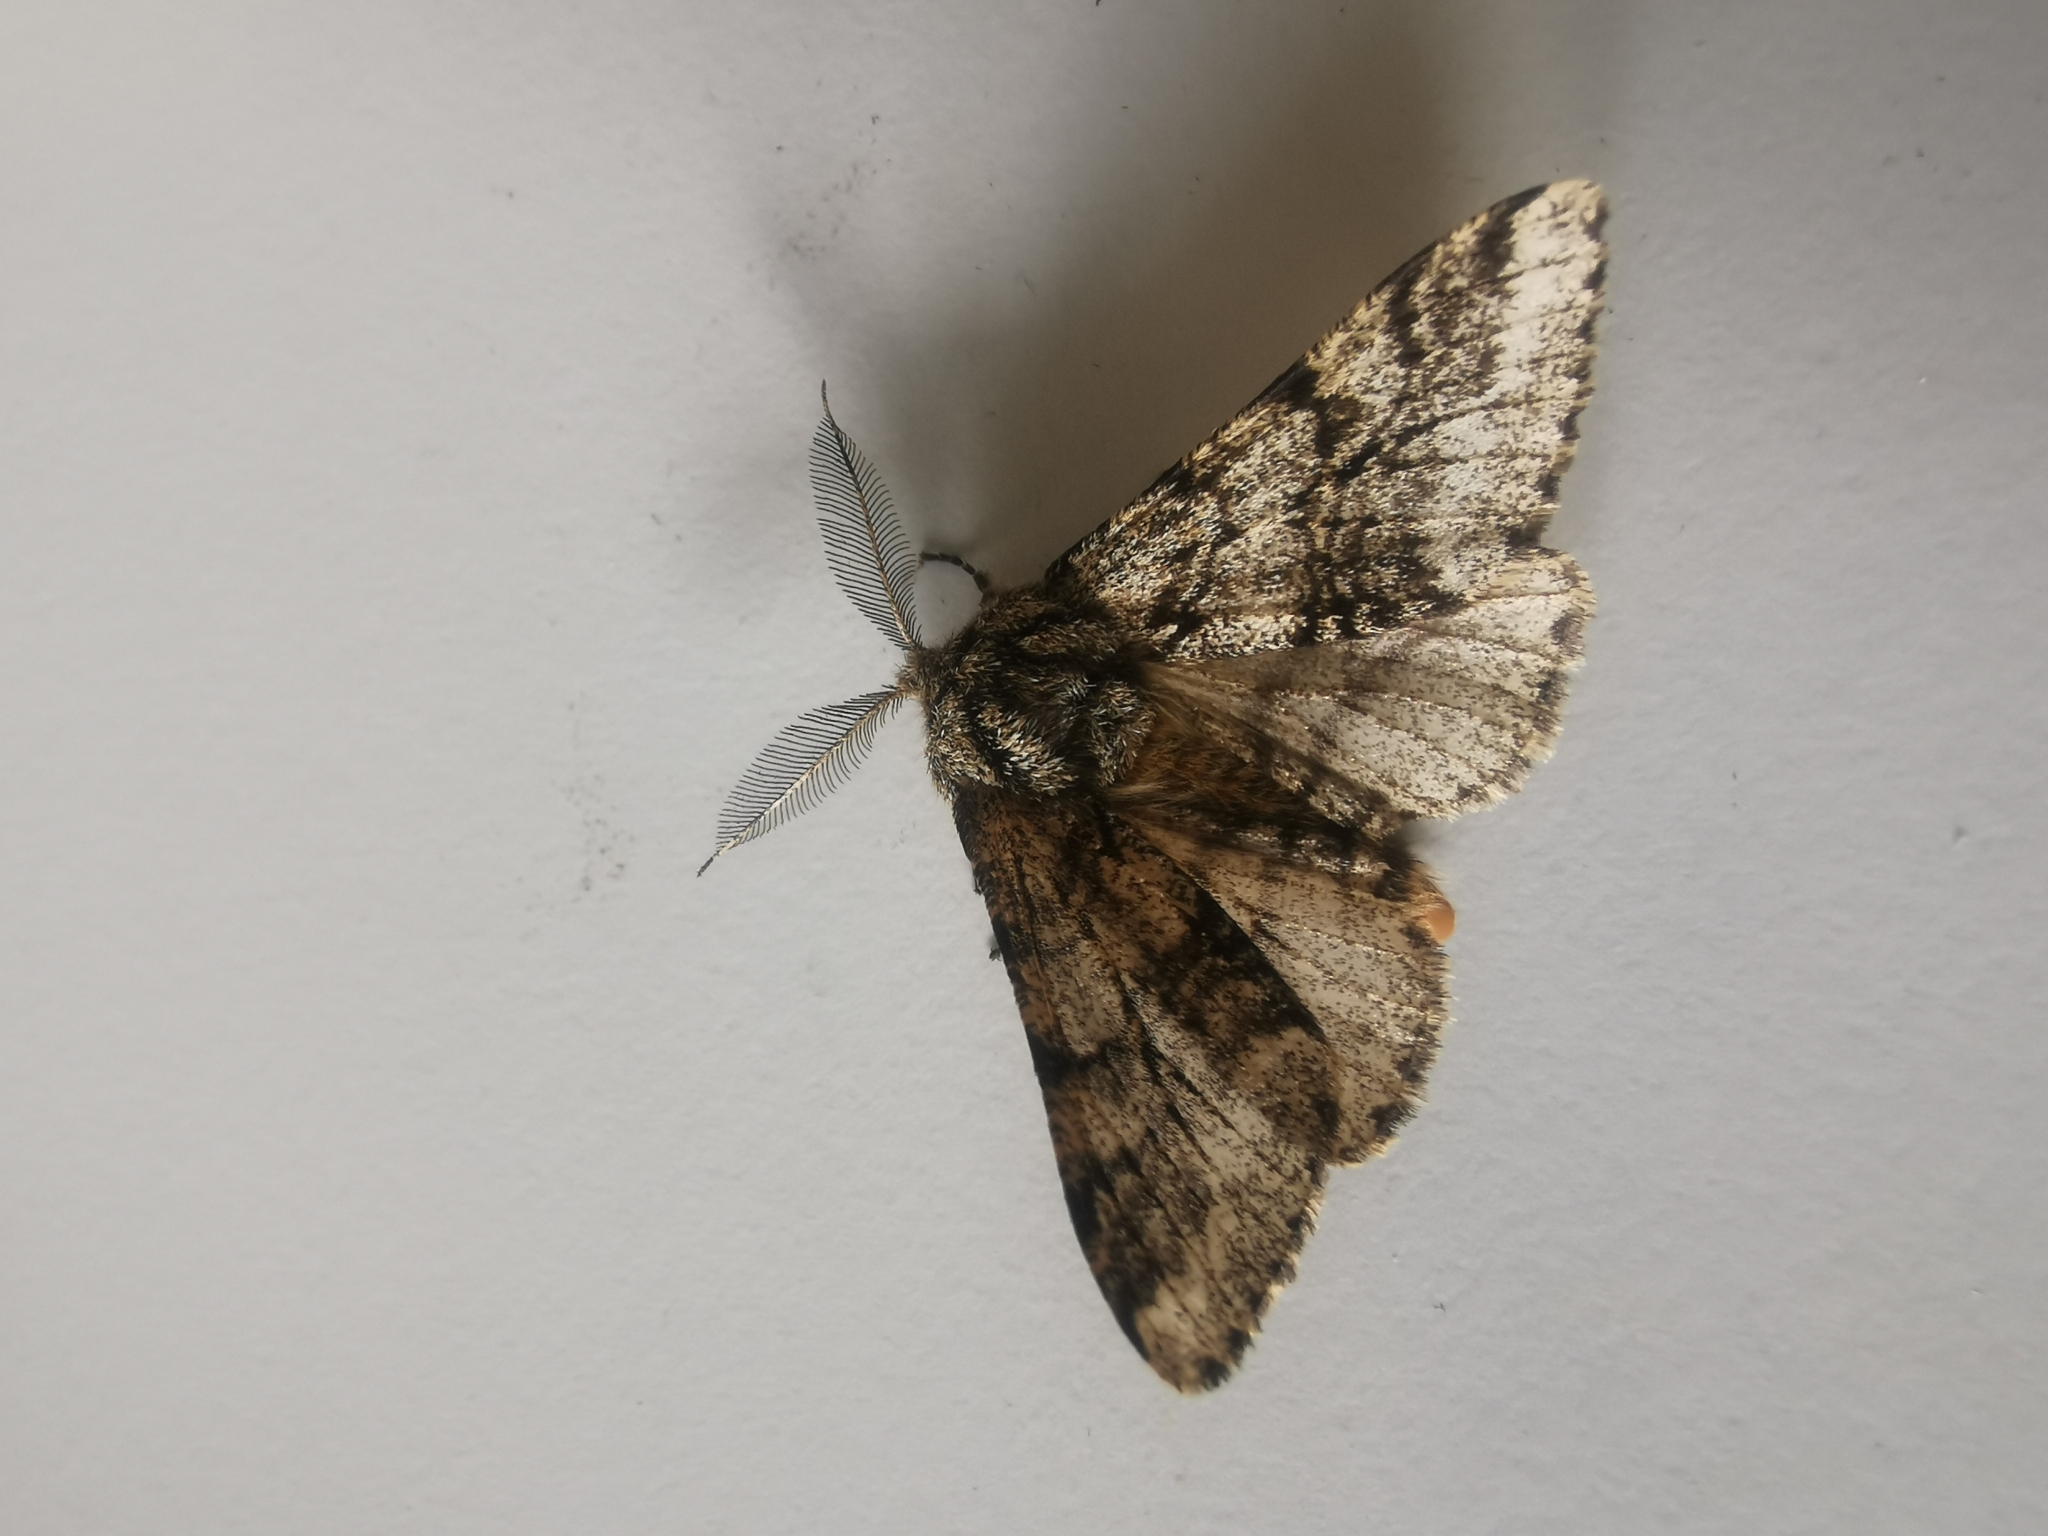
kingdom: Animalia
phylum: Arthropoda
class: Insecta
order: Lepidoptera
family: Geometridae
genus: Lycia
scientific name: Lycia hirtaria
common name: Brindled beauty
